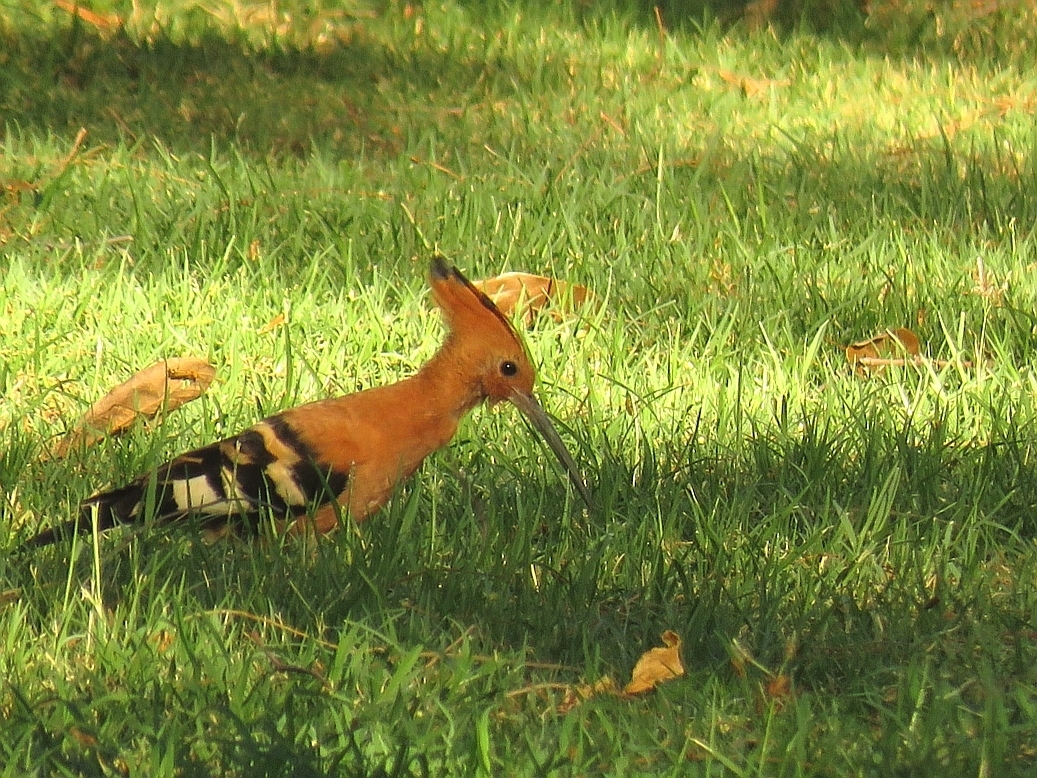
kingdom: Animalia
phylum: Chordata
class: Aves
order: Bucerotiformes
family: Upupidae
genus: Upupa
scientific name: Upupa africana
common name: African hoopoe
